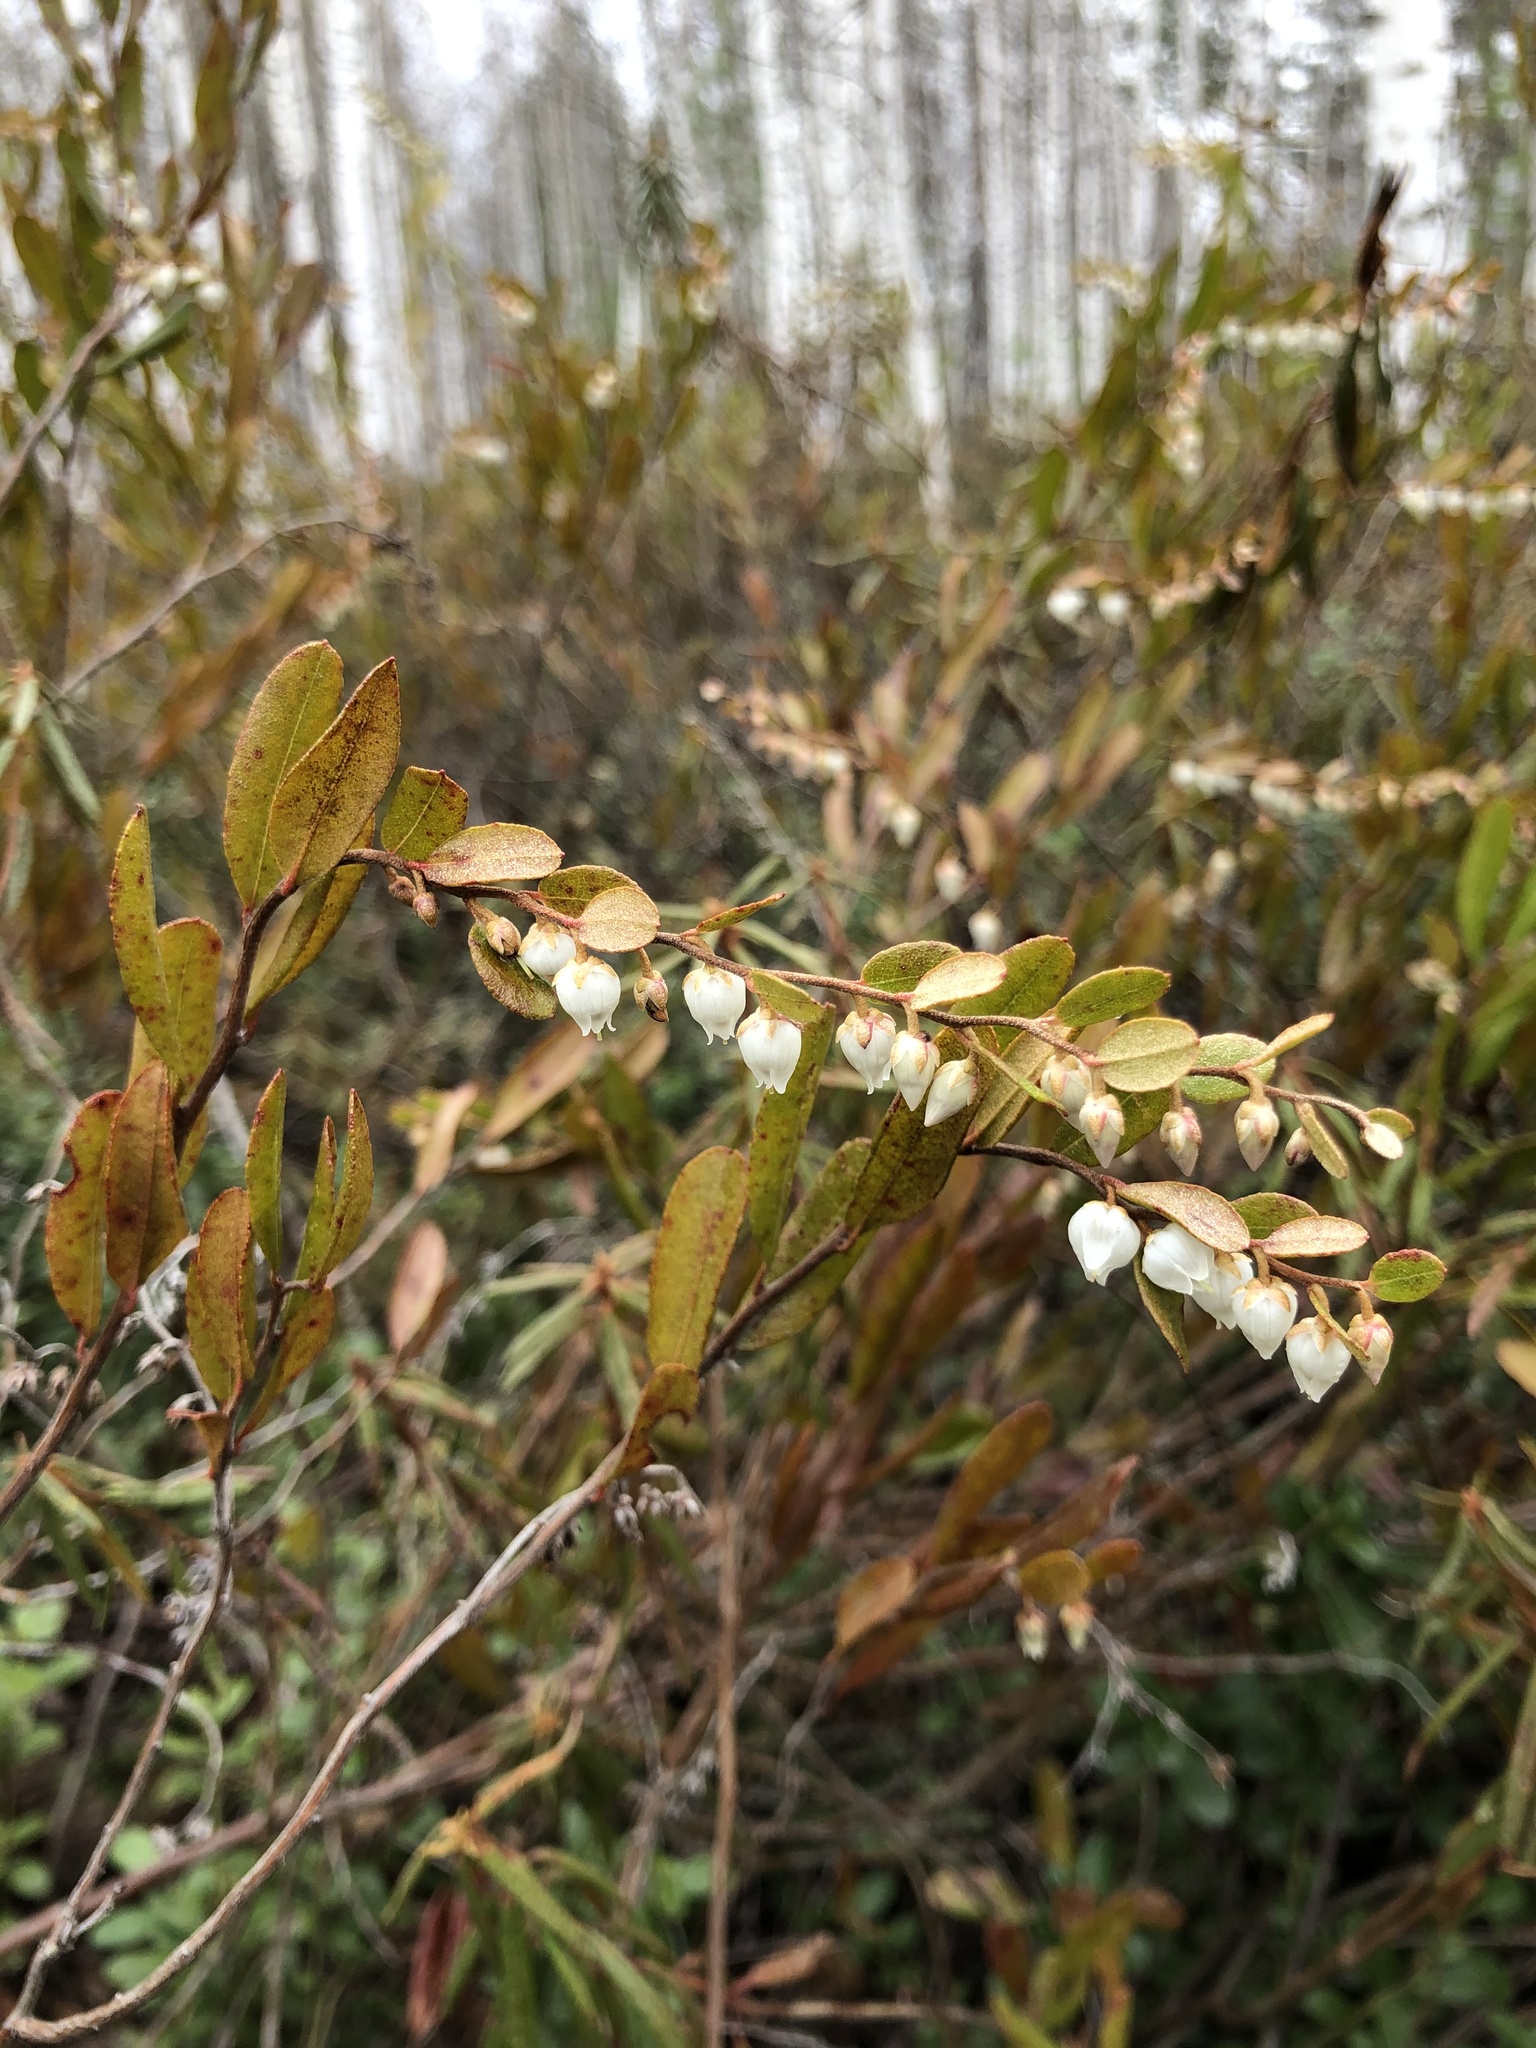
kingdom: Plantae
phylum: Tracheophyta
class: Magnoliopsida
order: Ericales
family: Ericaceae
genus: Chamaedaphne
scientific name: Chamaedaphne calyculata
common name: Leatherleaf
